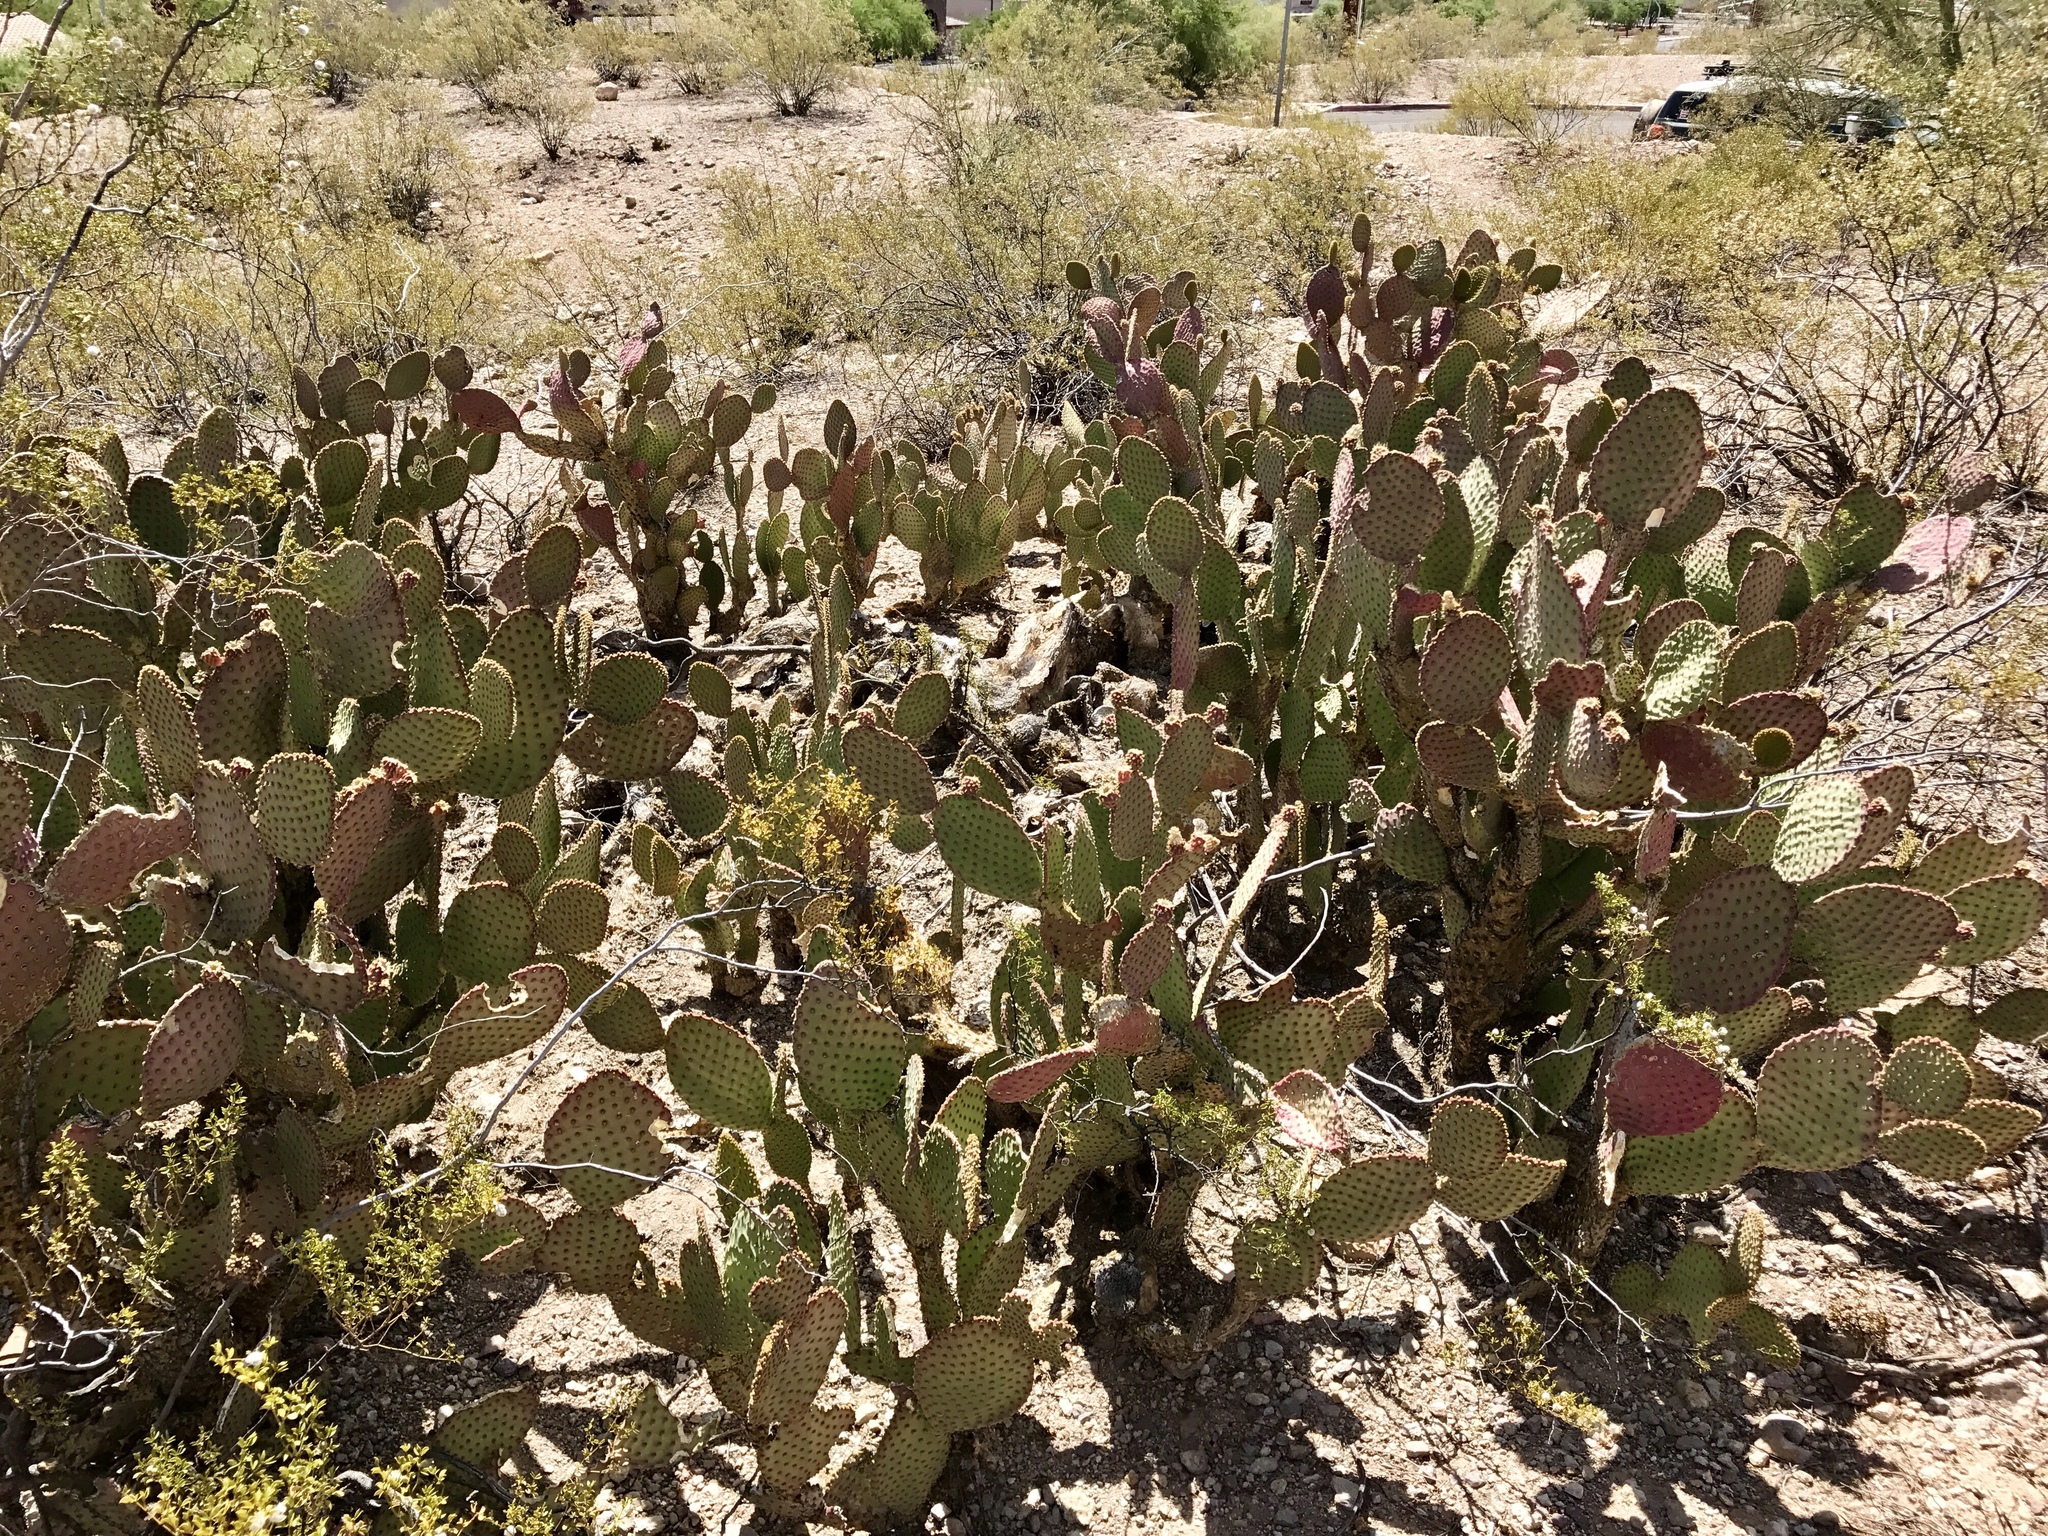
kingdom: Plantae
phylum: Tracheophyta
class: Magnoliopsida
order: Caryophyllales
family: Cactaceae
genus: Opuntia
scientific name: Opuntia microdasys
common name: Angel's-wings
